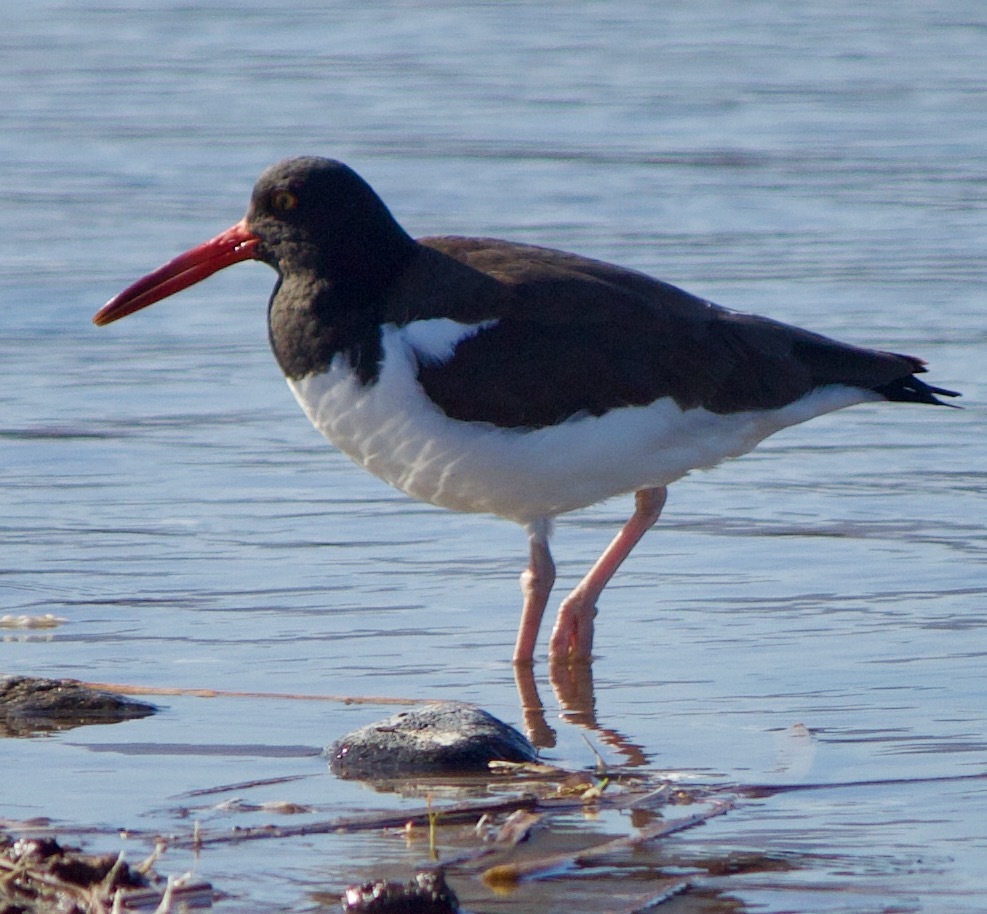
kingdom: Animalia
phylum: Chordata
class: Aves
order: Charadriiformes
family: Haematopodidae
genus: Haematopus
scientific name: Haematopus palliatus
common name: American oystercatcher
